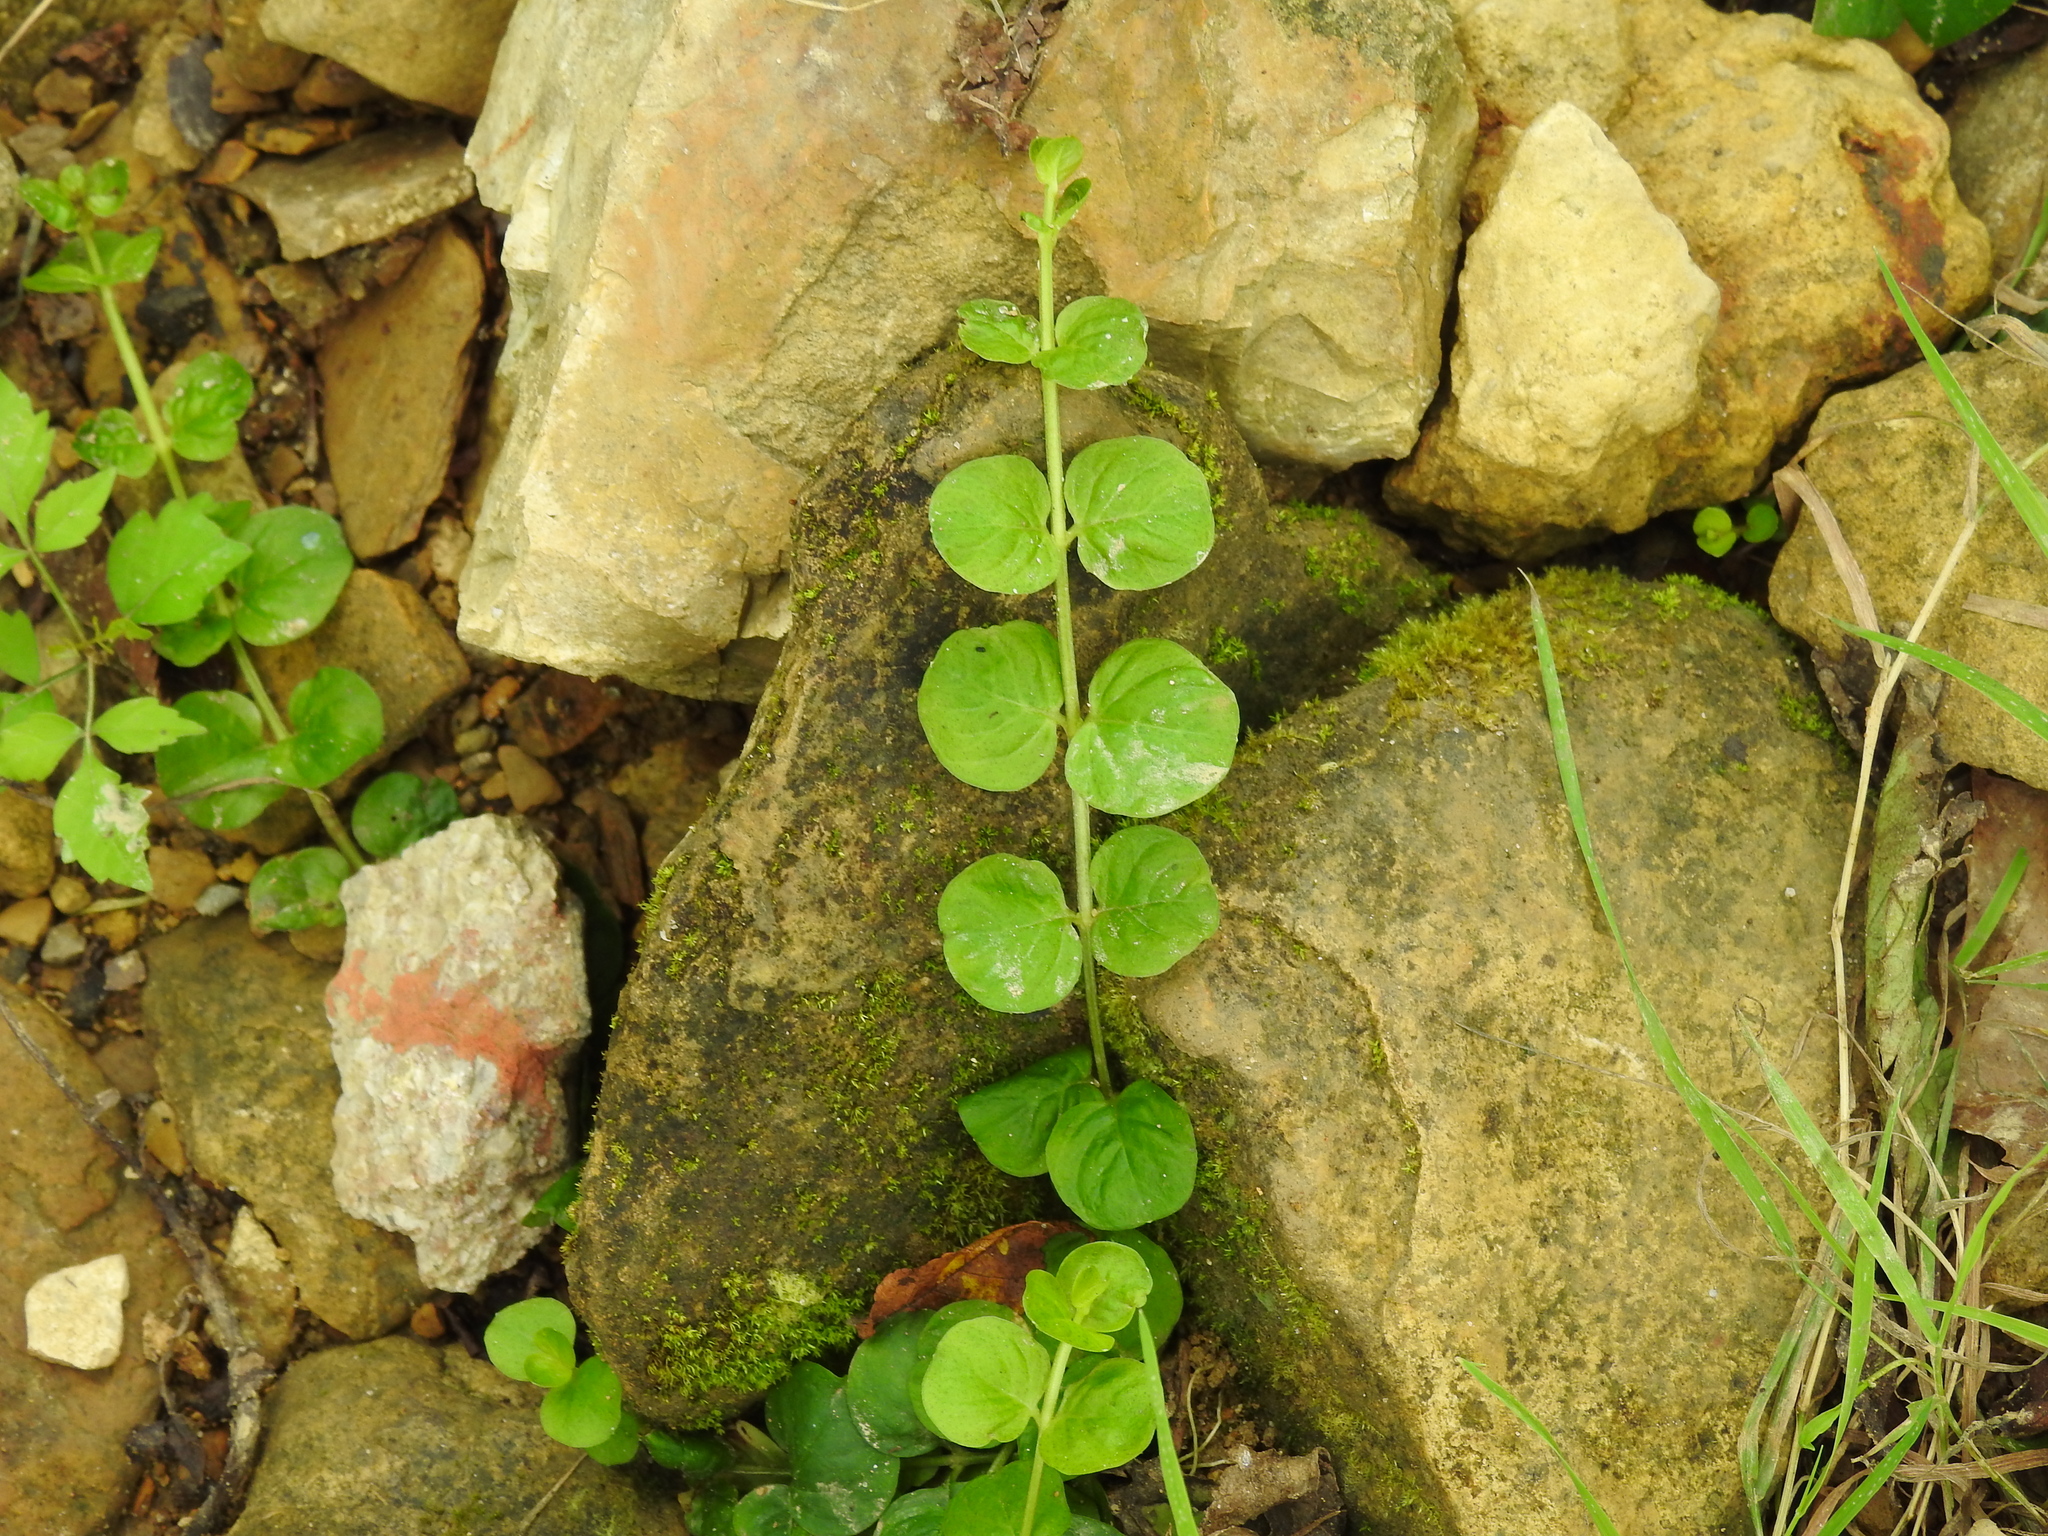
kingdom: Plantae
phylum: Tracheophyta
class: Magnoliopsida
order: Ericales
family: Primulaceae
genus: Lysimachia
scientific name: Lysimachia nummularia
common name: Moneywort
